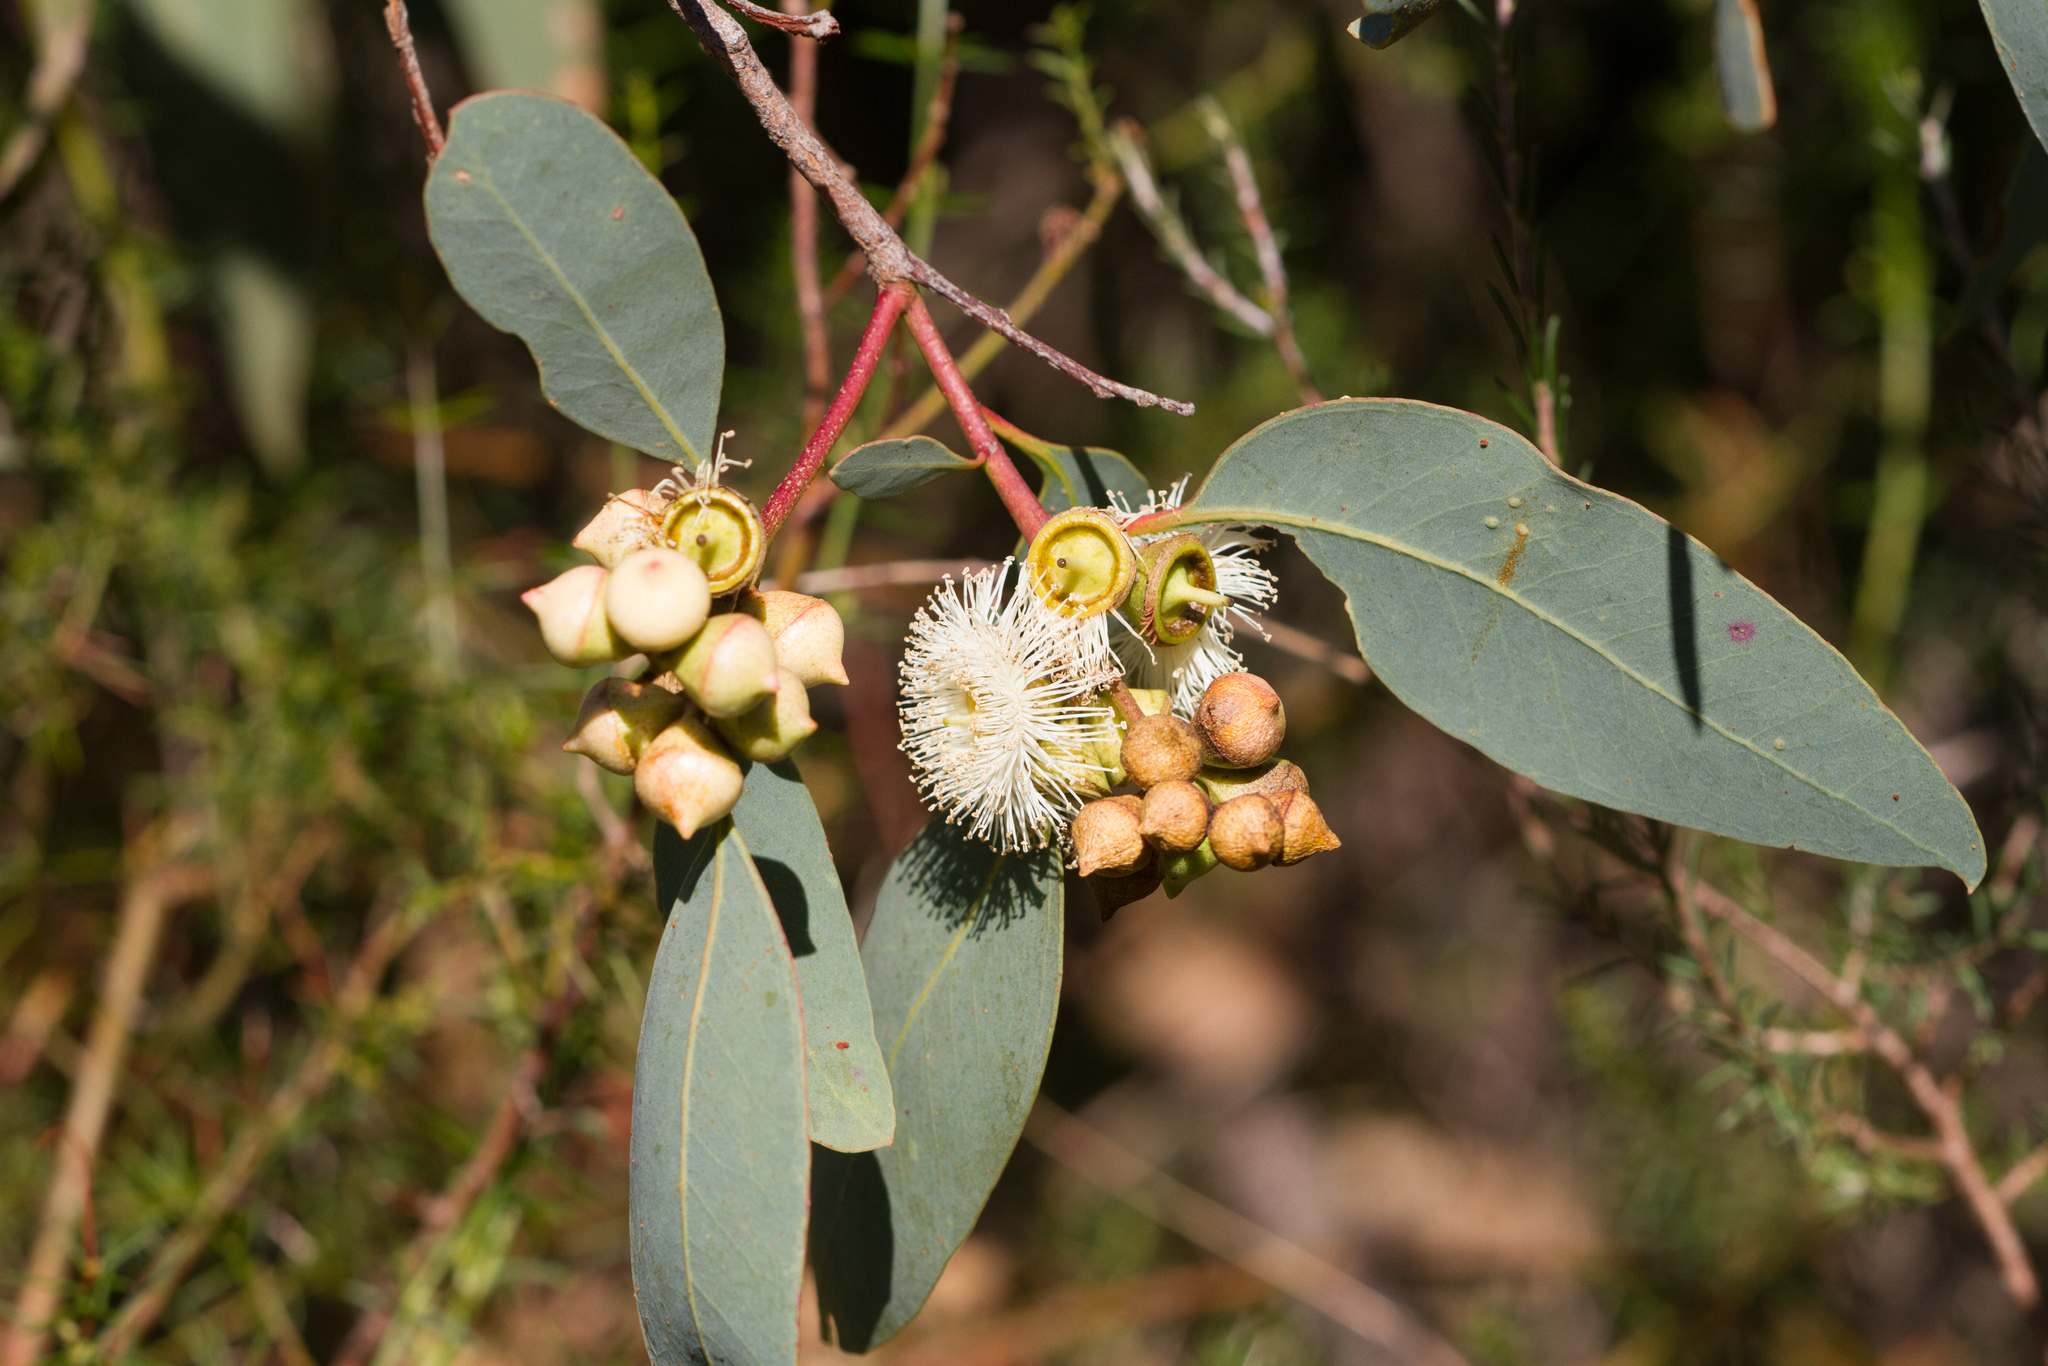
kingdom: Plantae
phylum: Tracheophyta
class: Magnoliopsida
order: Myrtales
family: Myrtaceae
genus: Eucalyptus
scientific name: Eucalyptus cosmophylla
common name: Bog-gum
